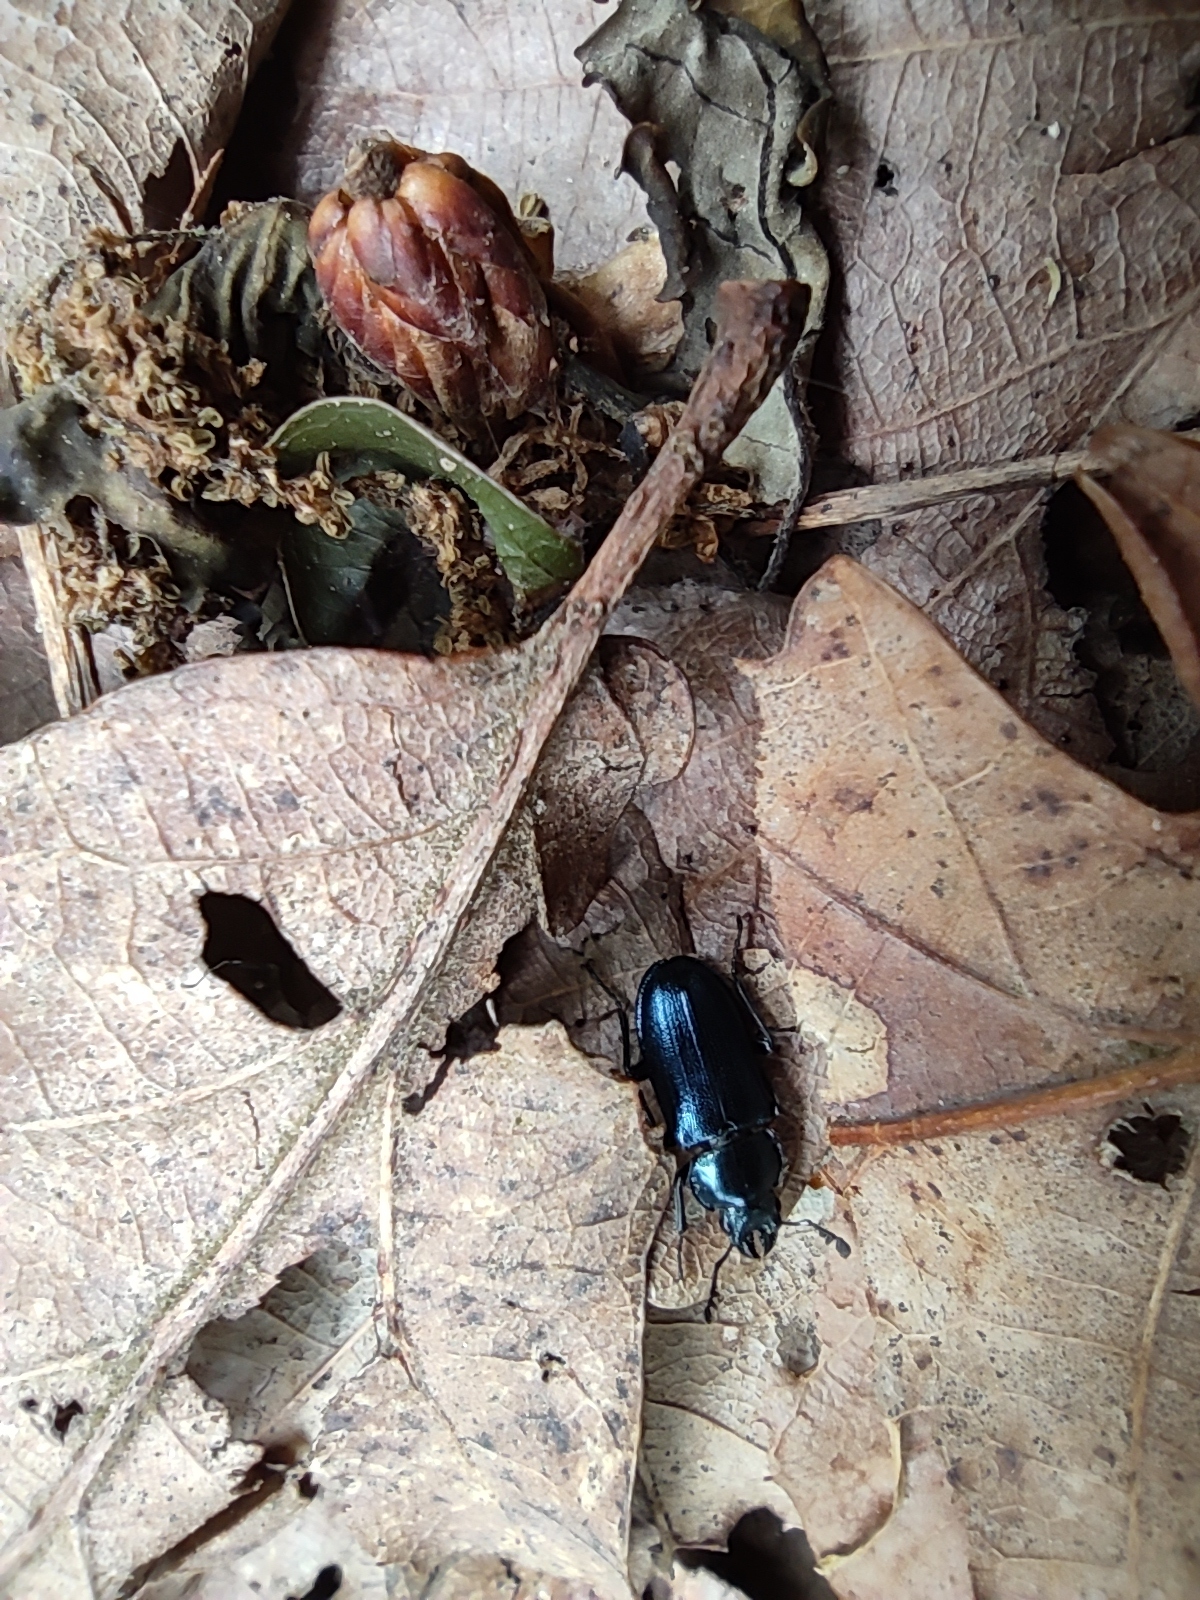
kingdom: Animalia
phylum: Arthropoda
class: Insecta
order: Coleoptera
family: Lucanidae
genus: Platycerus
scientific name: Platycerus caraboides
